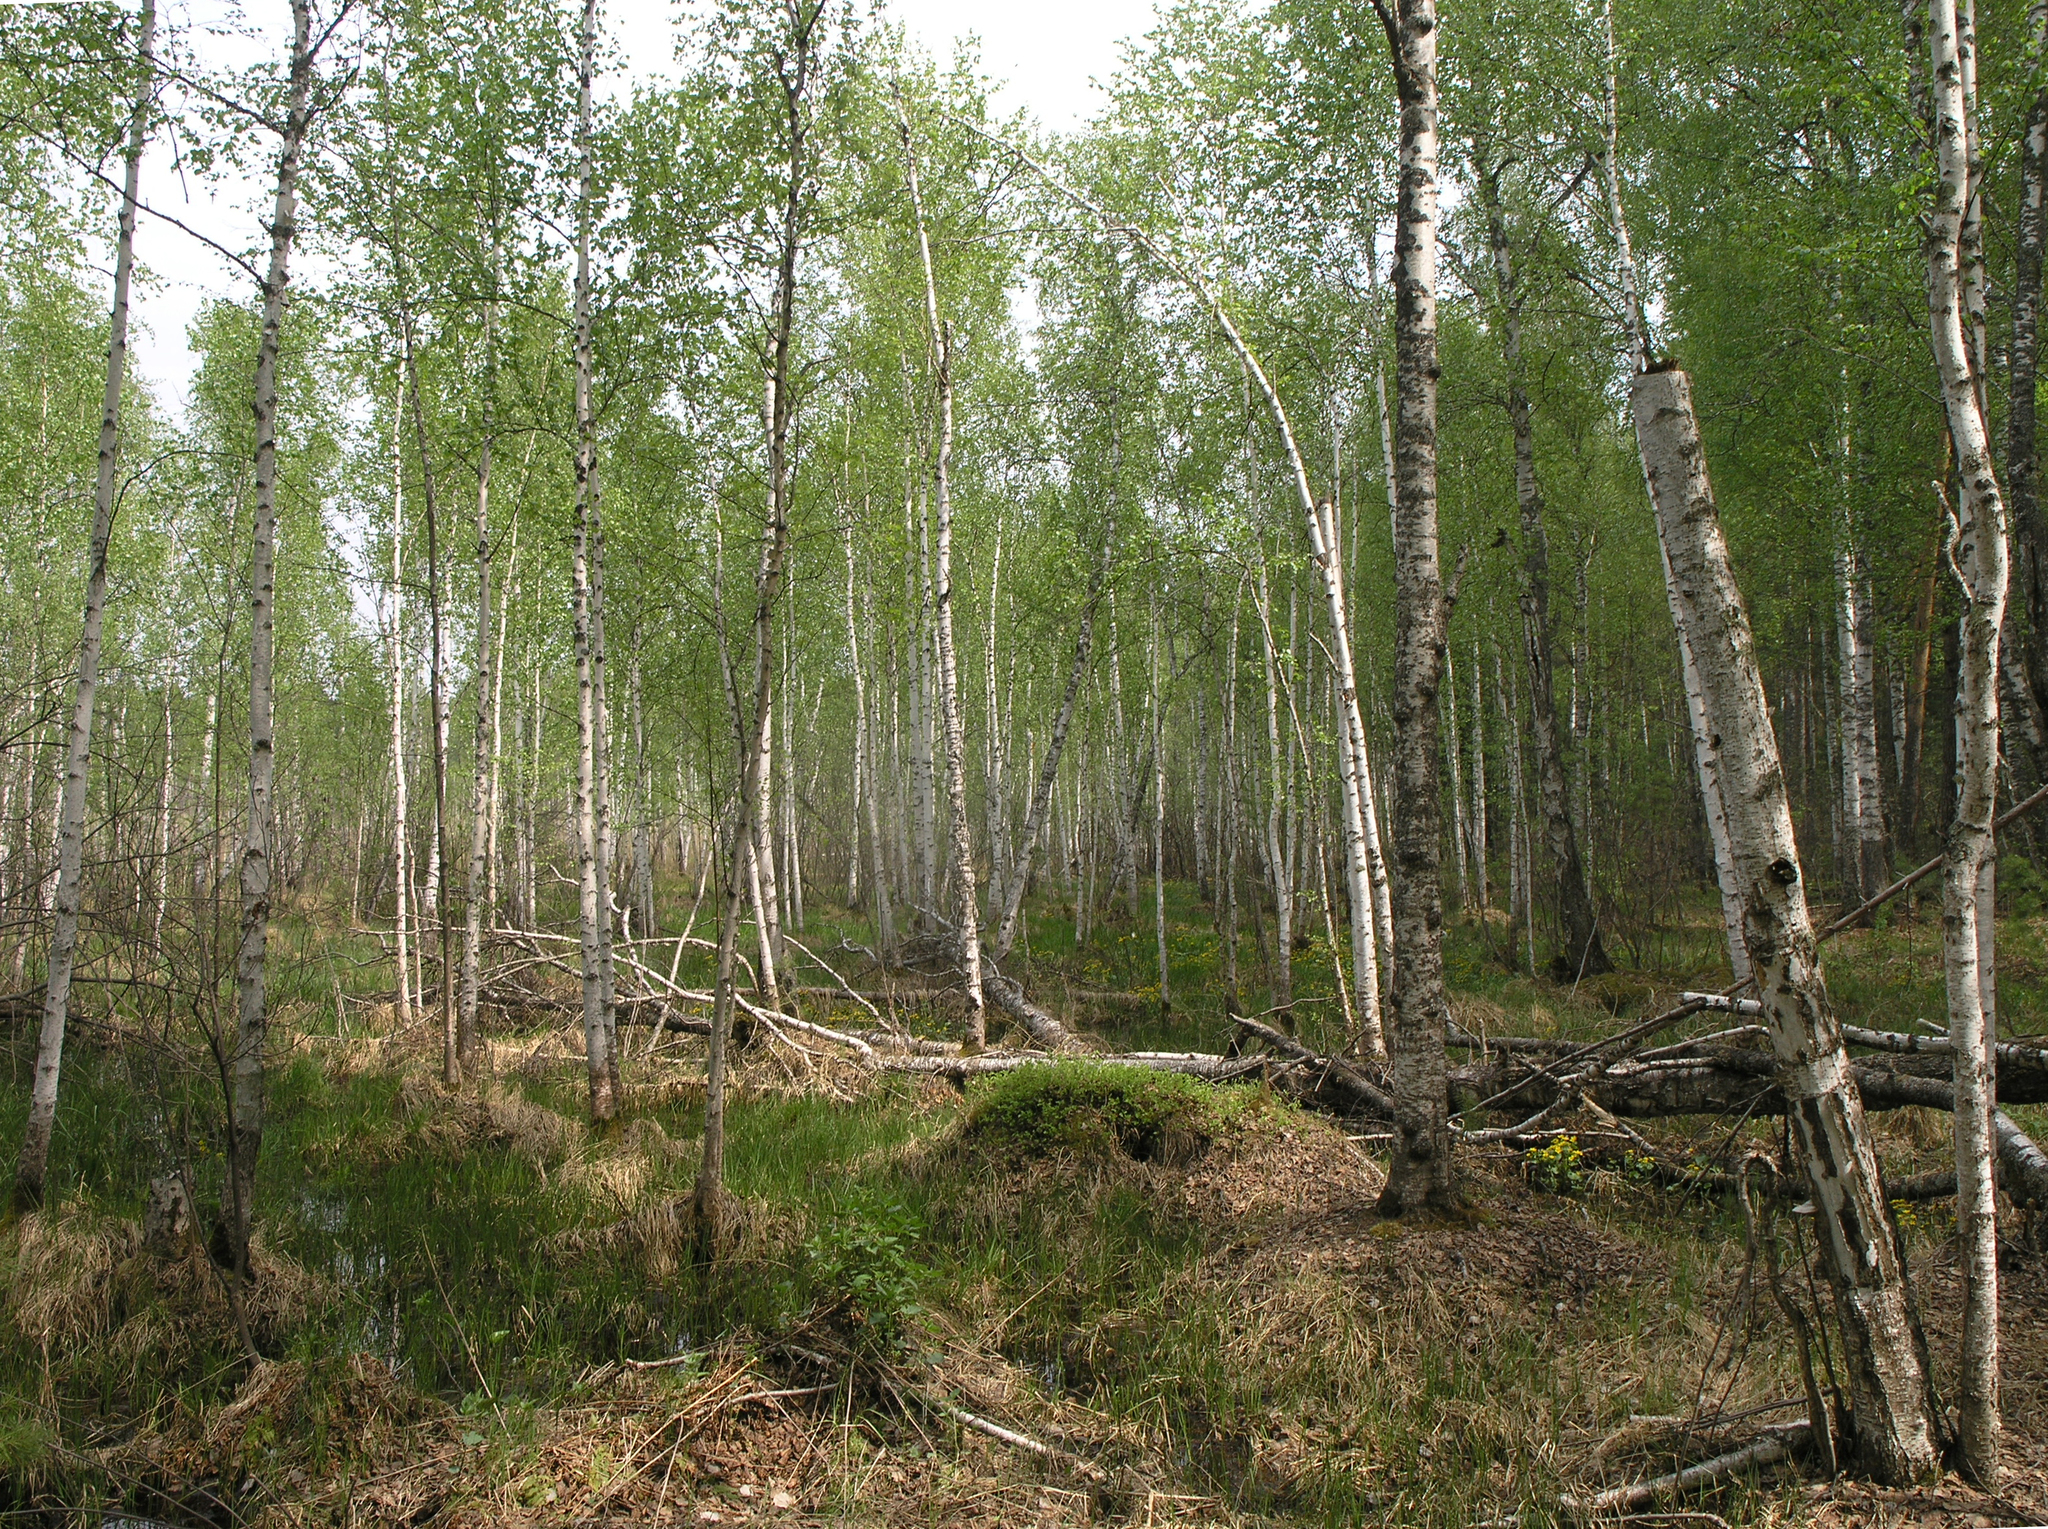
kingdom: Plantae
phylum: Tracheophyta
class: Magnoliopsida
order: Fagales
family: Betulaceae
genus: Betula
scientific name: Betula pubescens
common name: Downy birch
